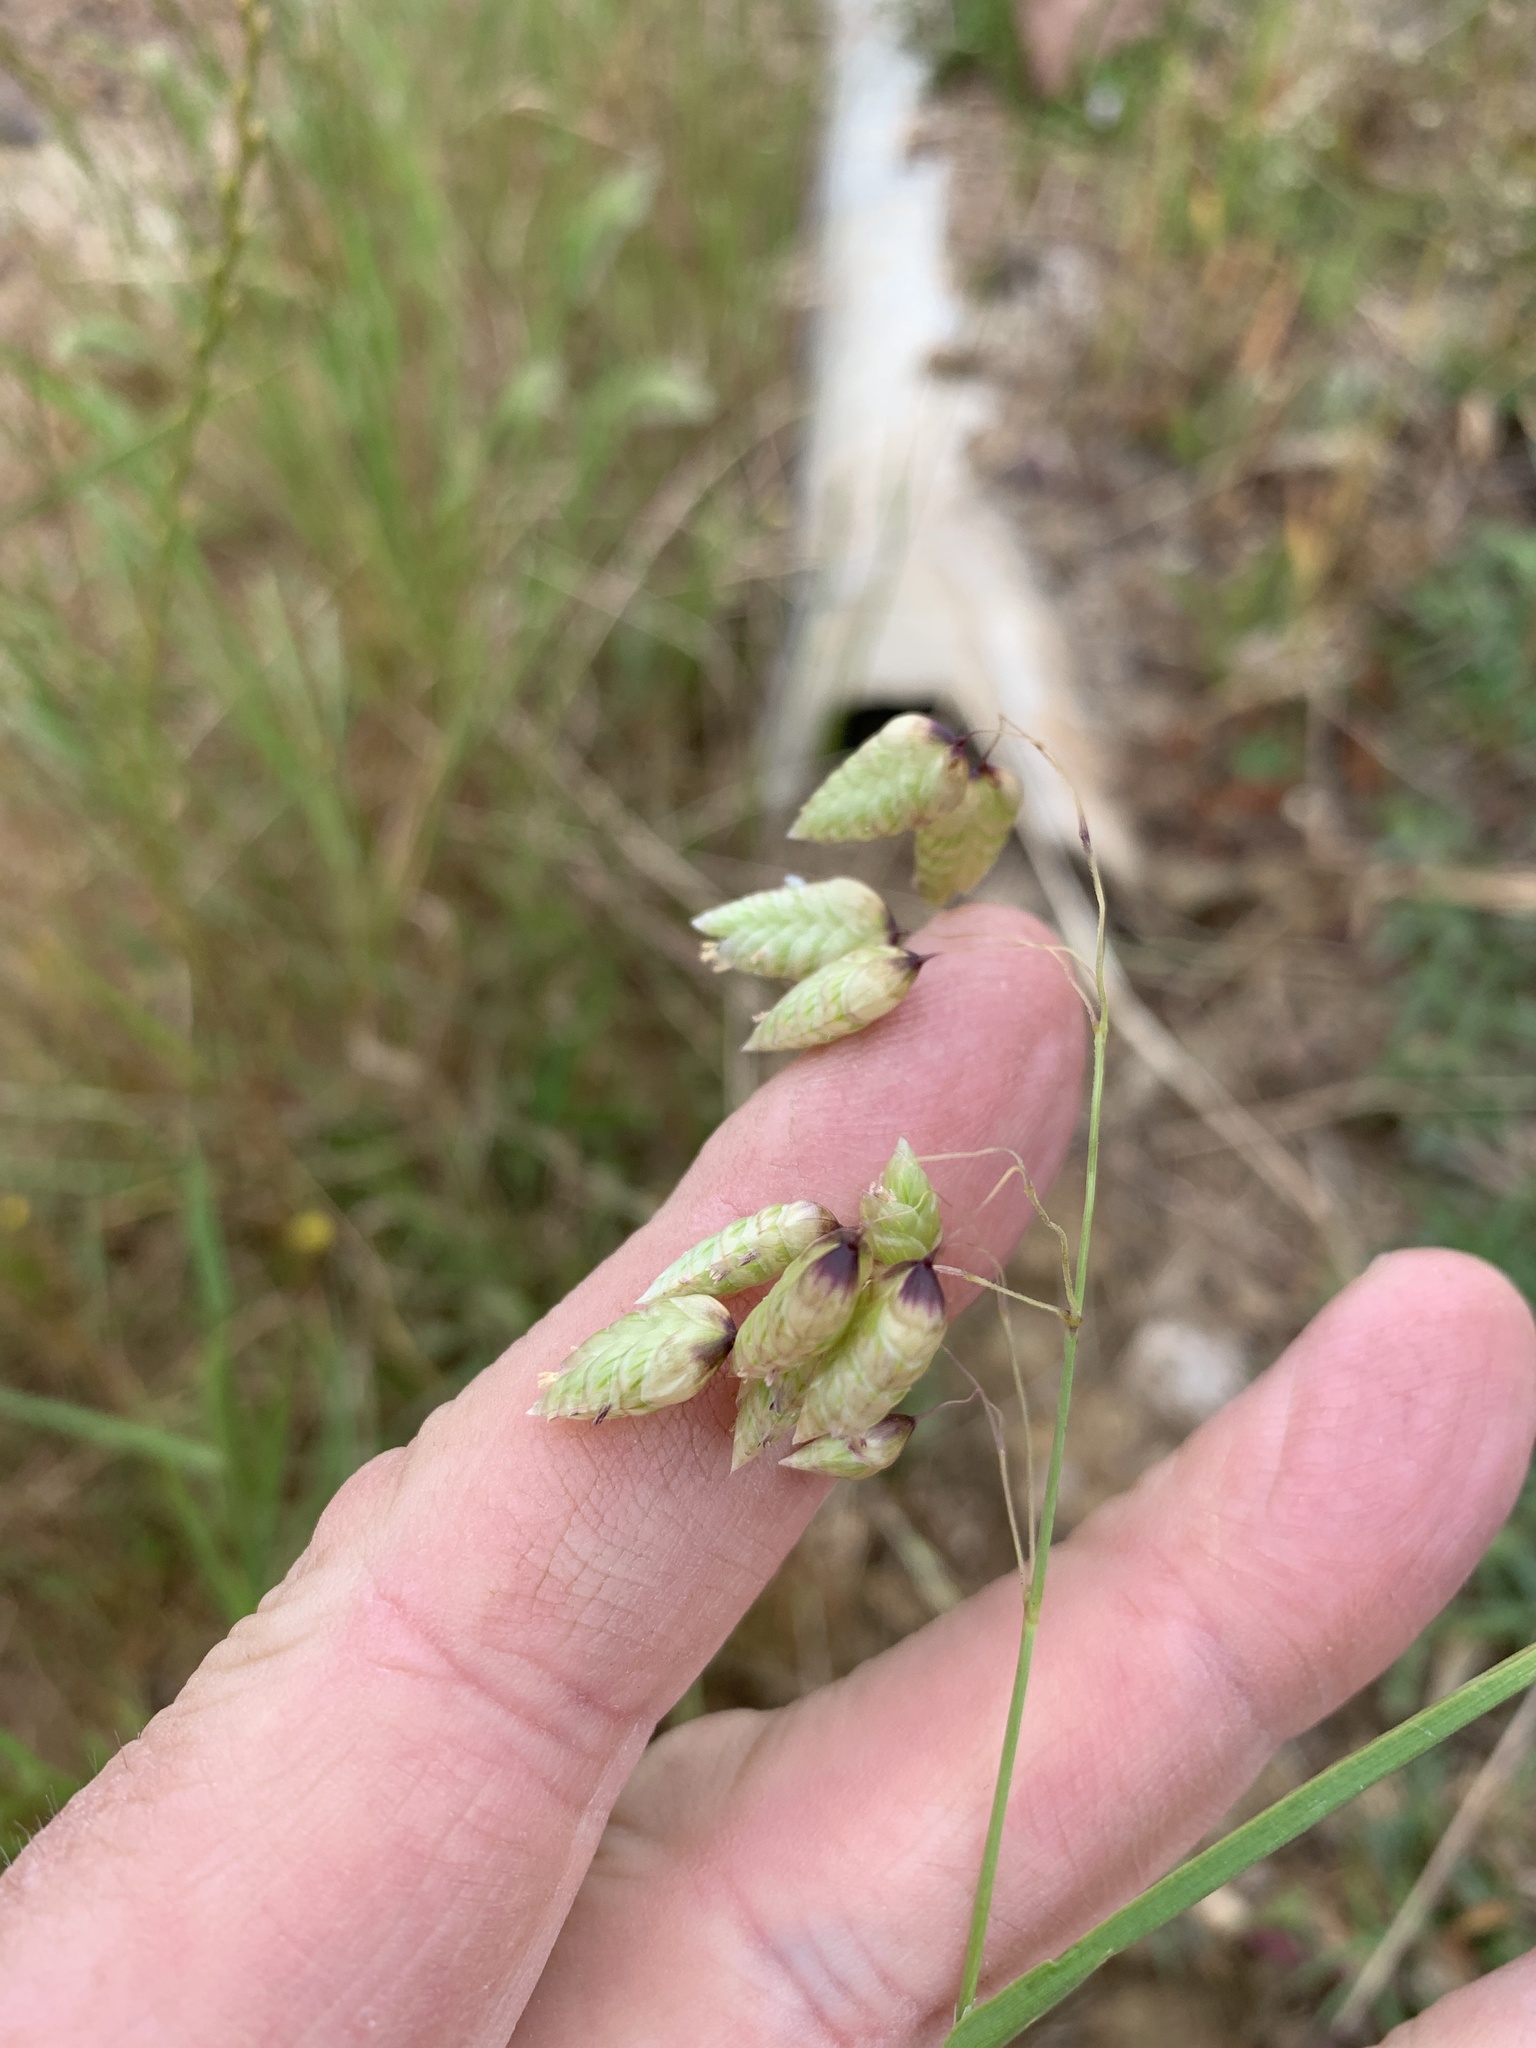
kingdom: Plantae
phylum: Tracheophyta
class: Liliopsida
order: Poales
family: Poaceae
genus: Briza
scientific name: Briza maxima
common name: Big quakinggrass
